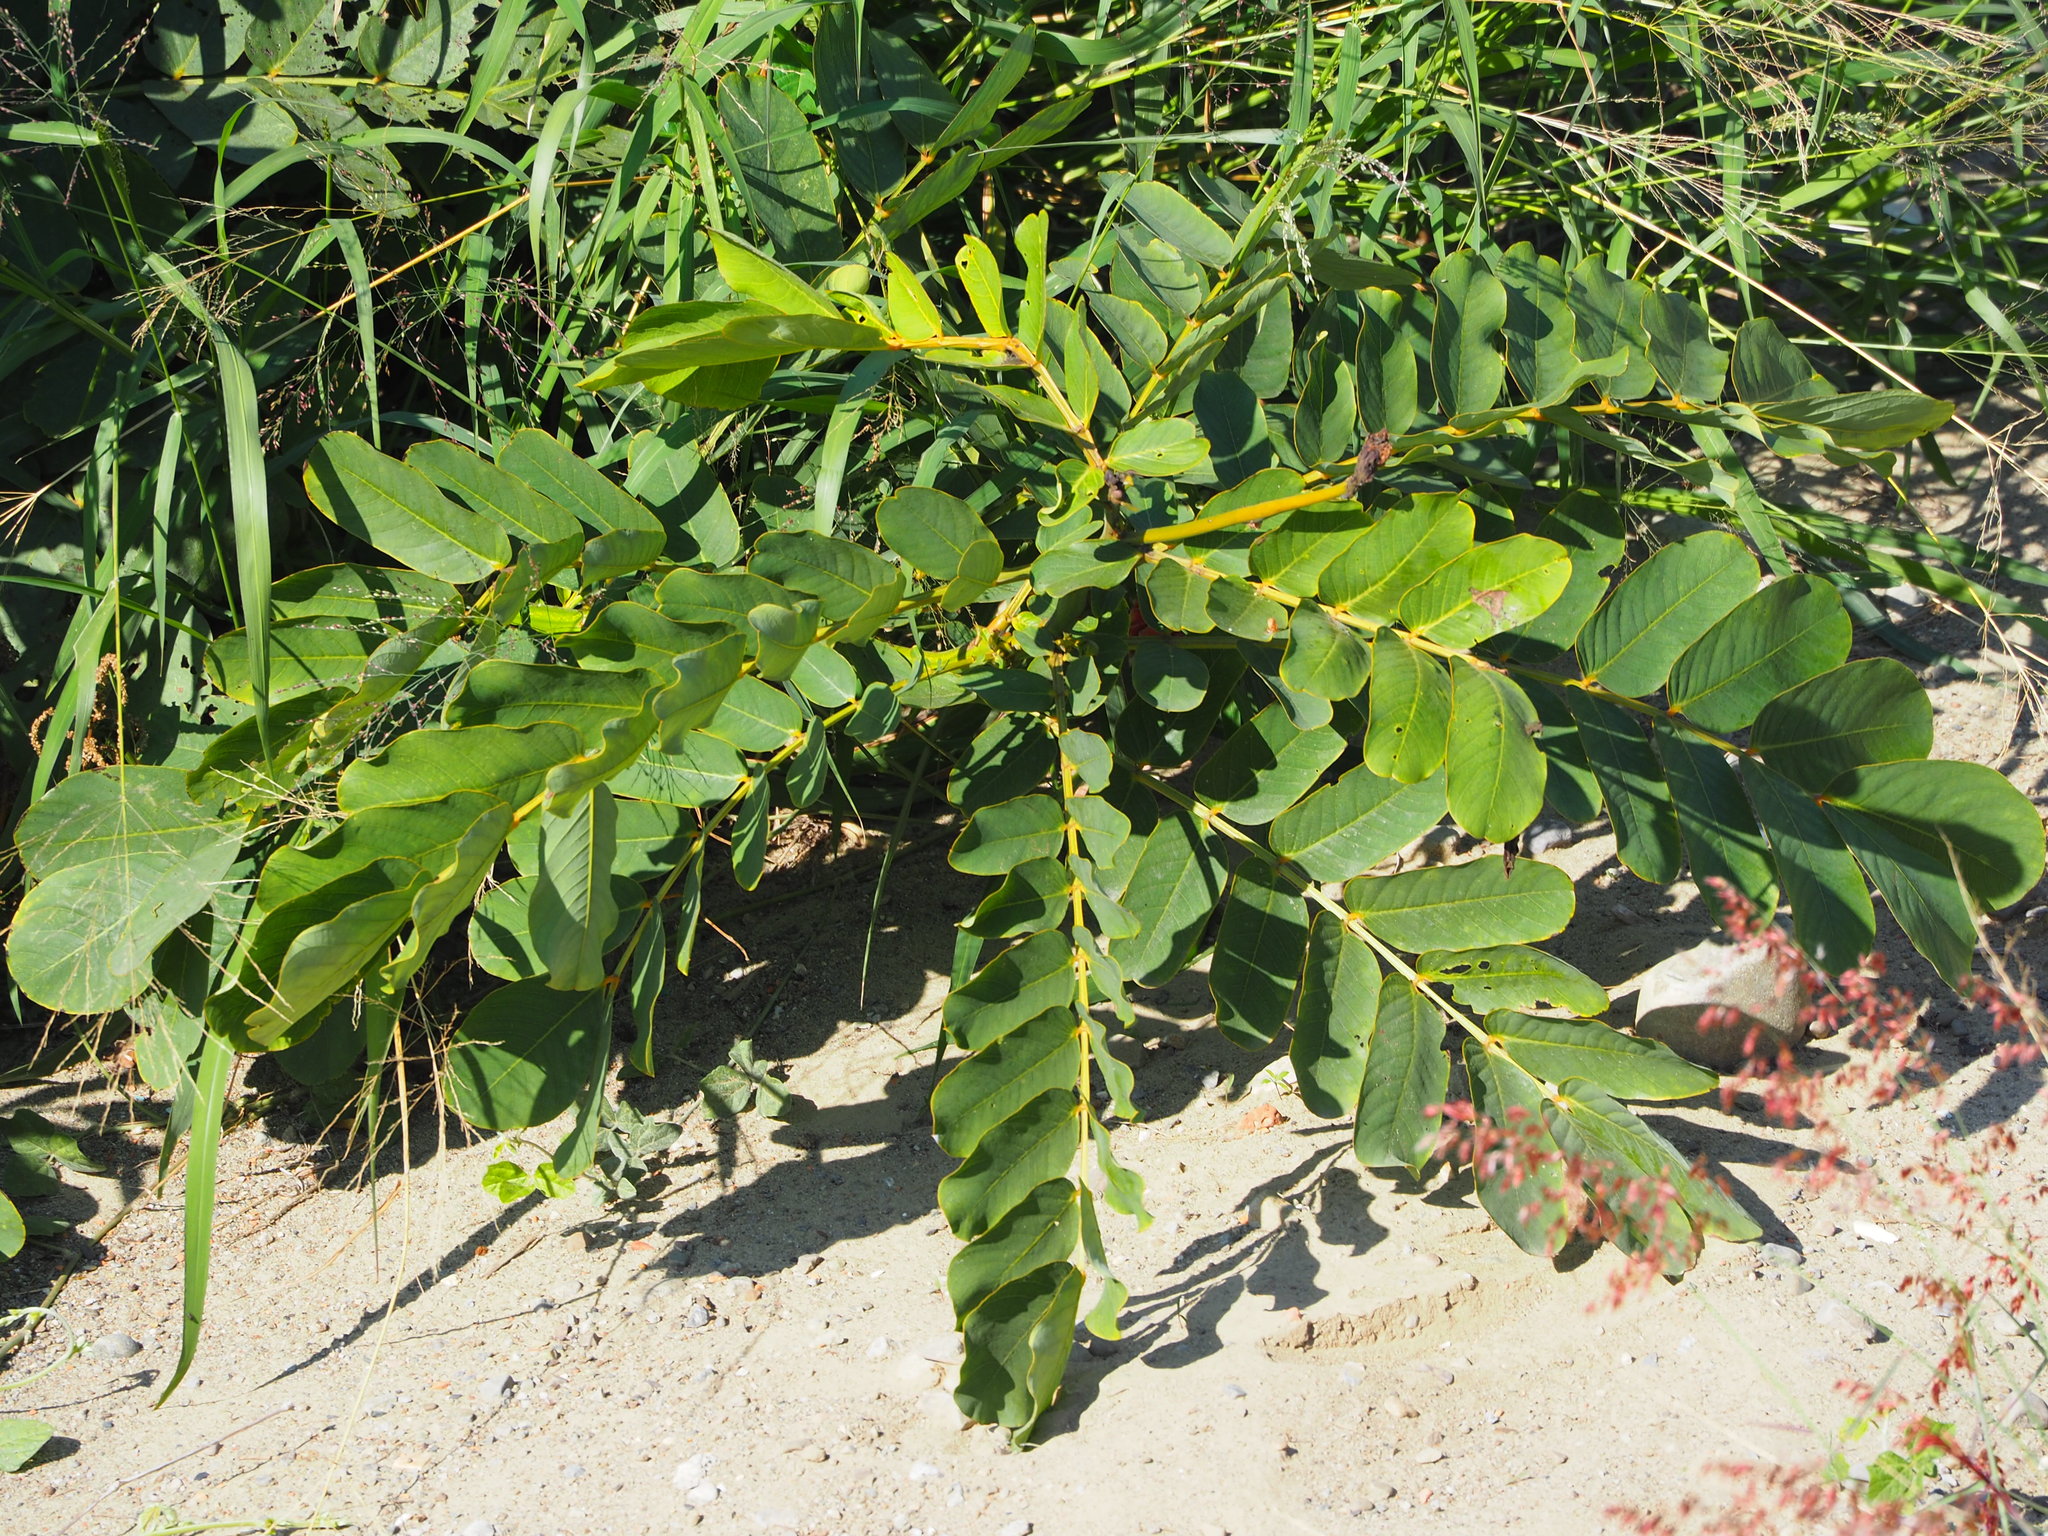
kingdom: Plantae
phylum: Tracheophyta
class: Magnoliopsida
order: Fabales
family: Fabaceae
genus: Senna
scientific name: Senna alata
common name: Emperor's candlesticks
